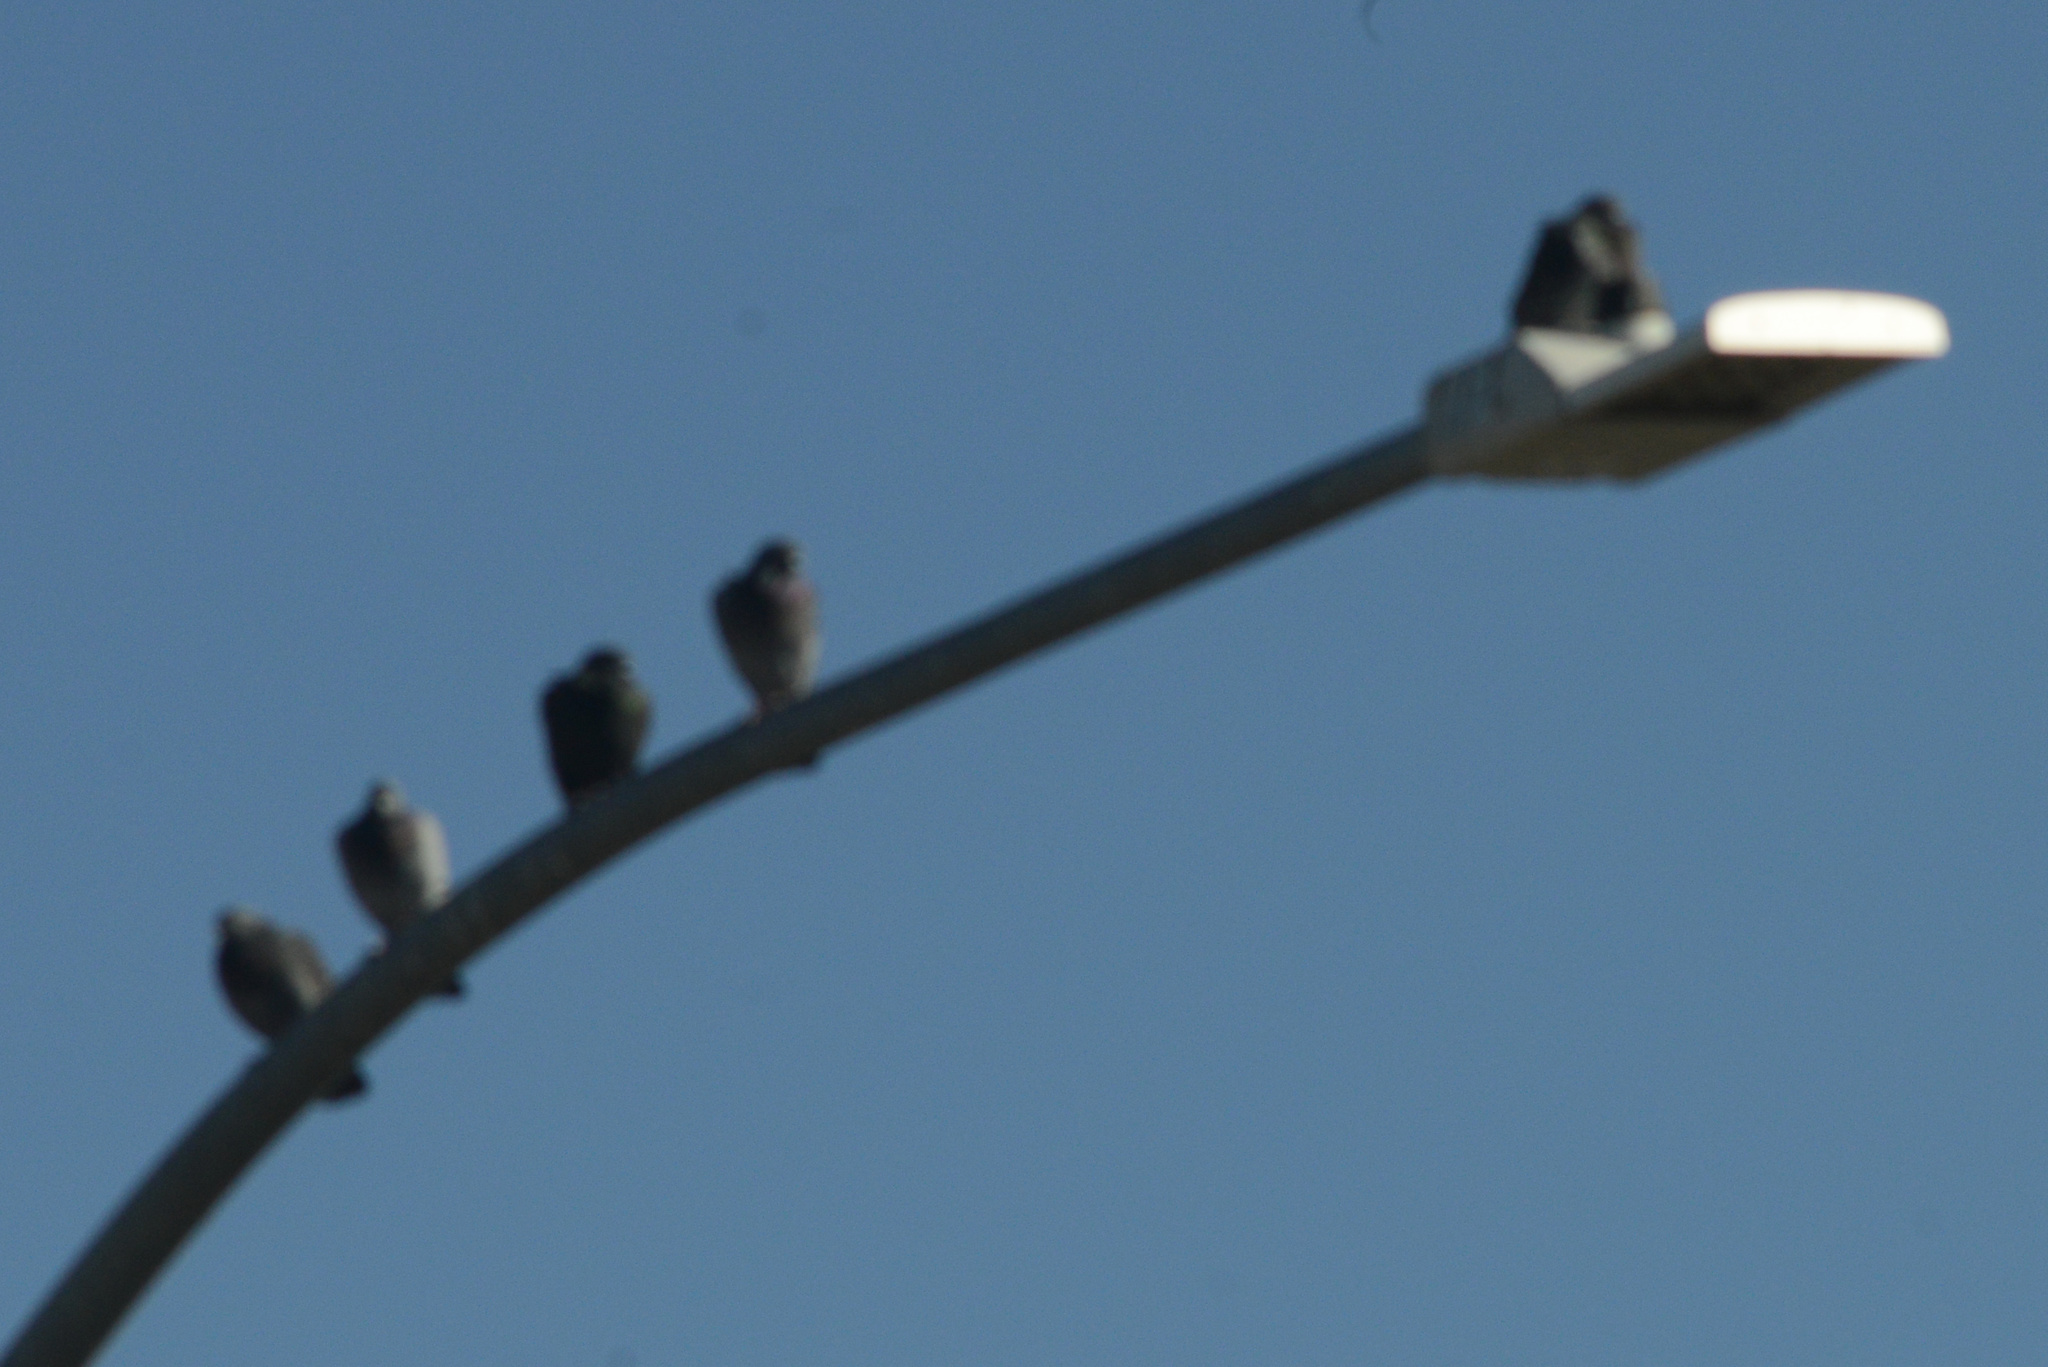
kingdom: Animalia
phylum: Chordata
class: Aves
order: Columbiformes
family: Columbidae
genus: Columba
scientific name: Columba livia
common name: Rock pigeon
